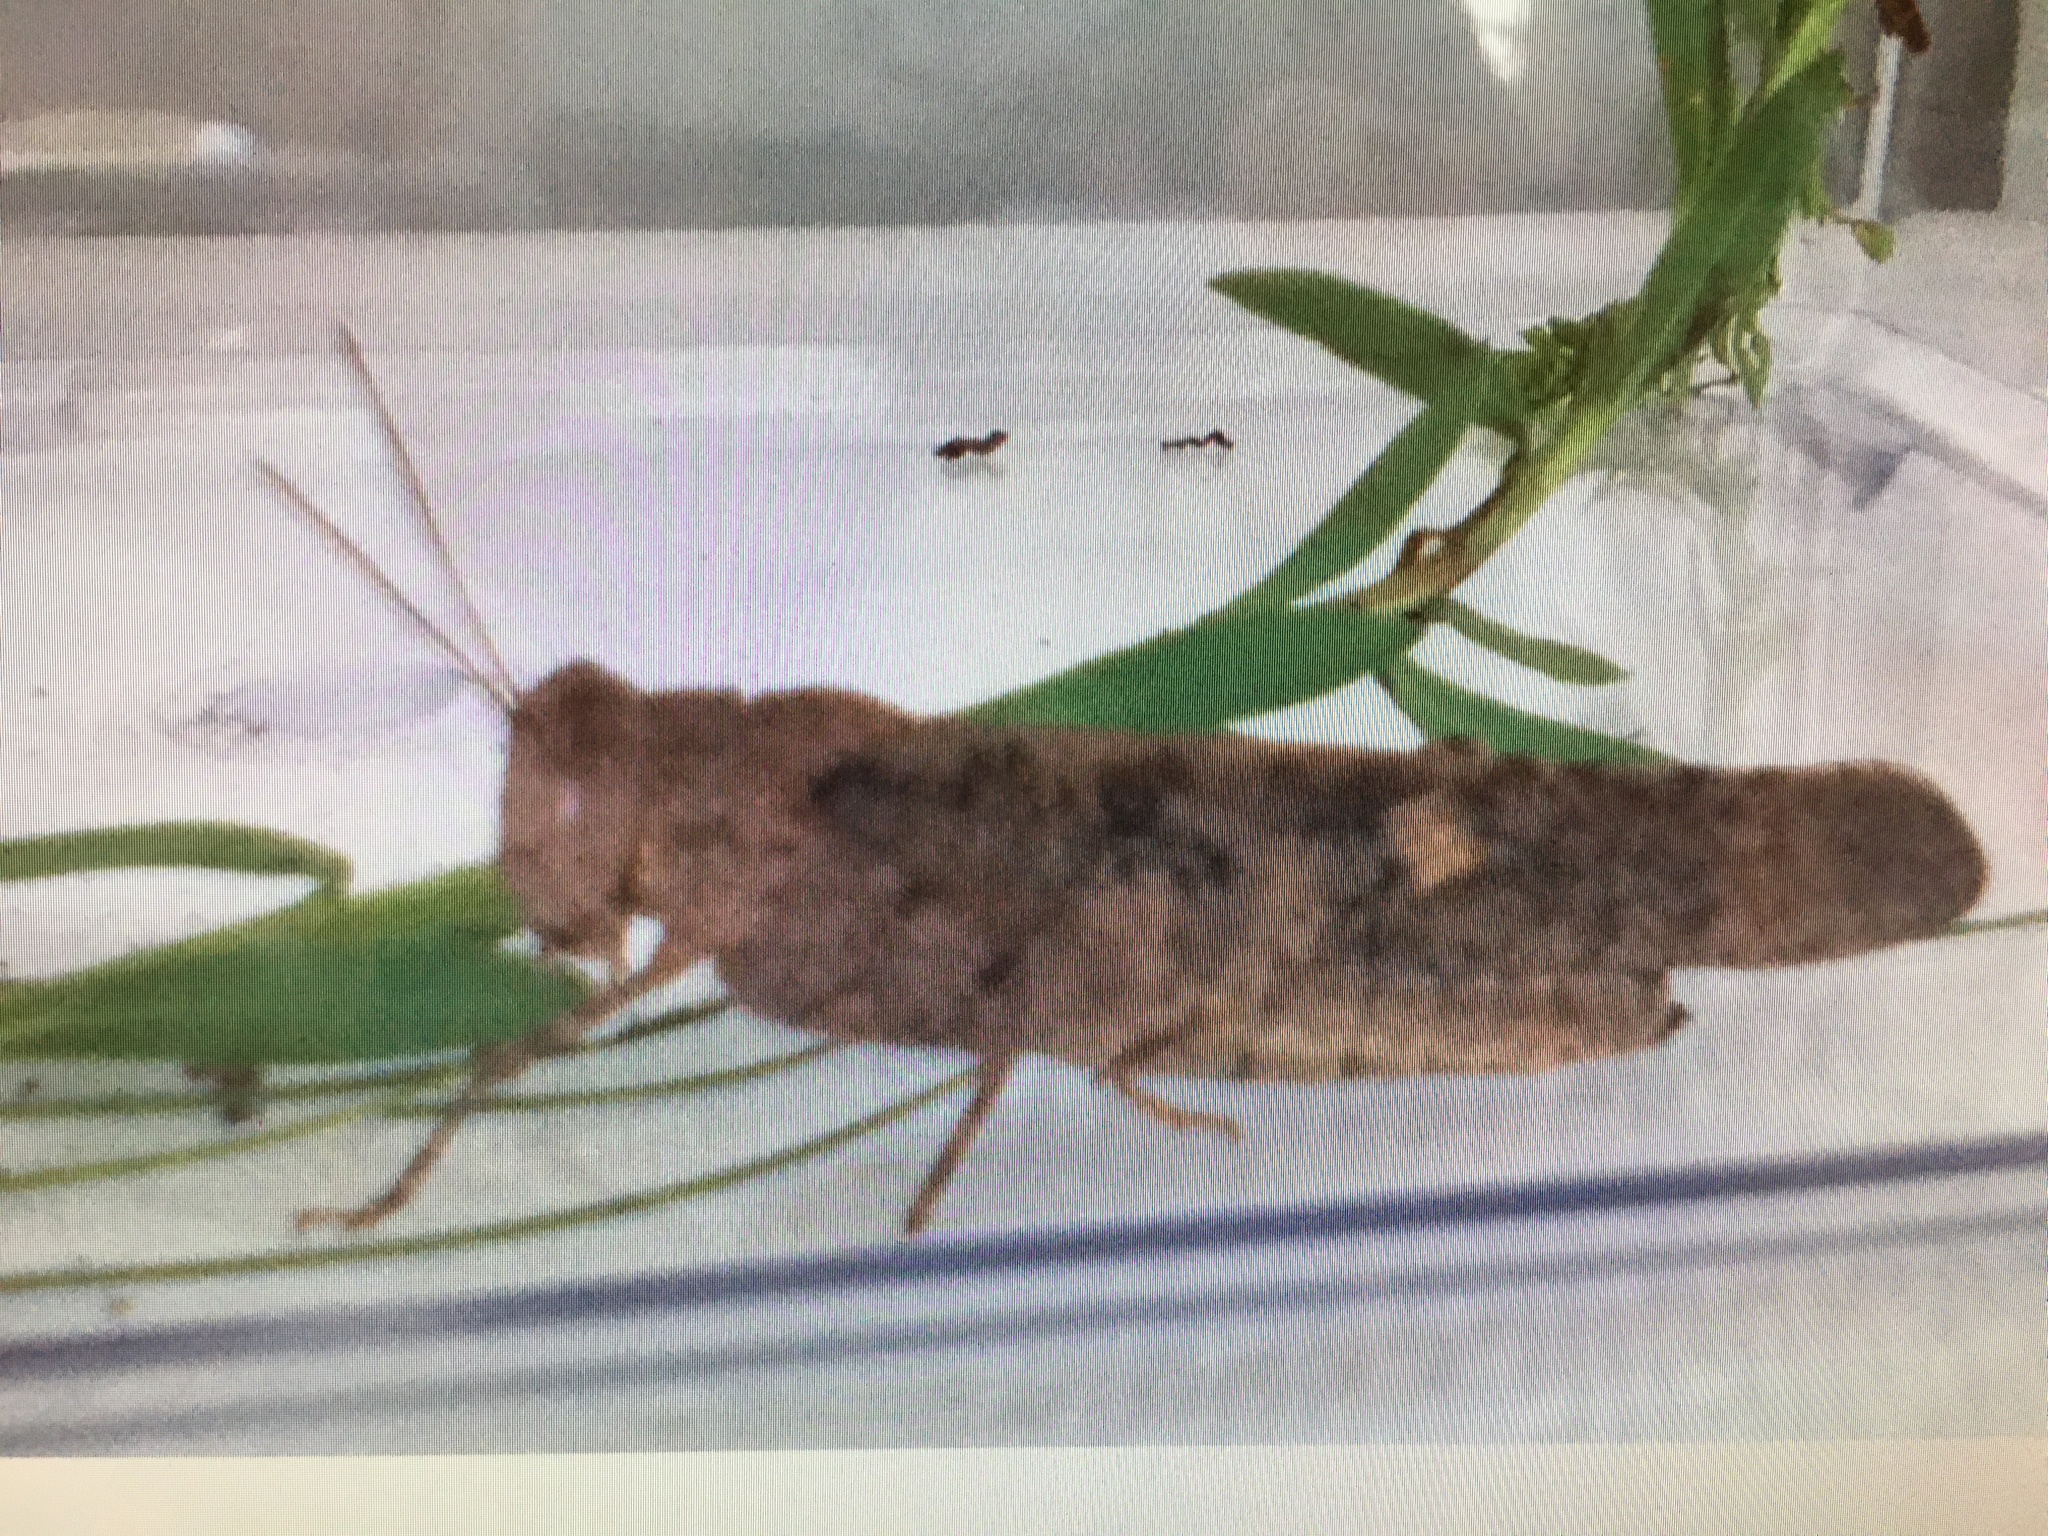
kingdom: Animalia
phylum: Arthropoda
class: Insecta
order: Orthoptera
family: Acrididae
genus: Dissosteira
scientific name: Dissosteira carolina
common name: Carolina grasshopper
